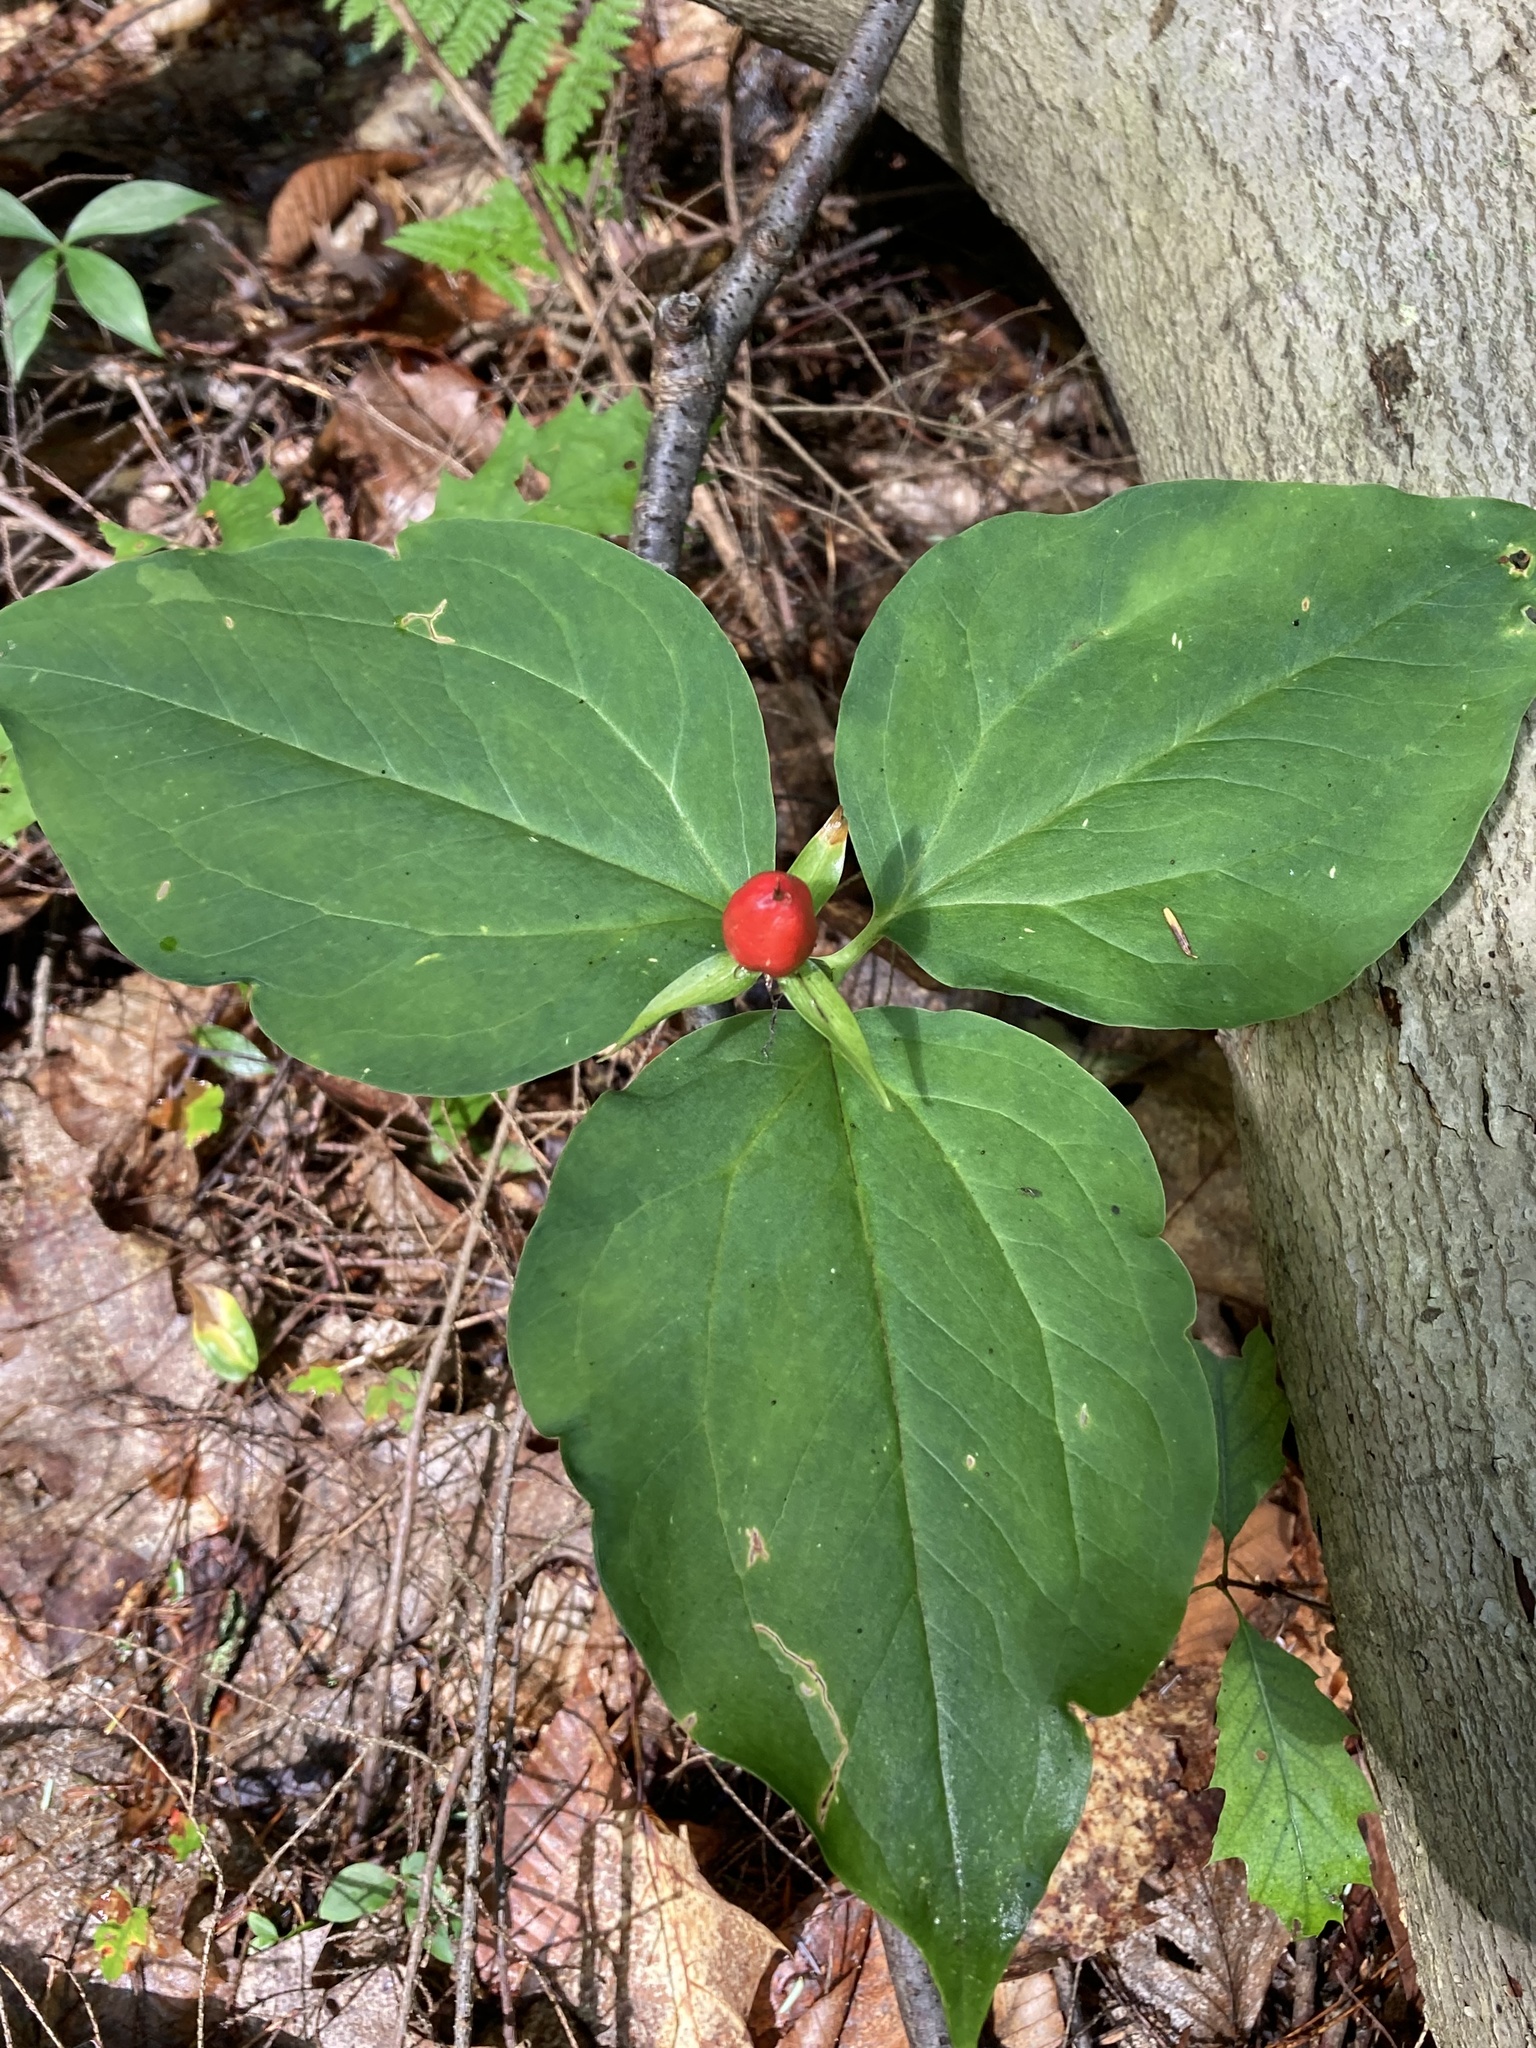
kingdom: Plantae
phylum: Tracheophyta
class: Liliopsida
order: Liliales
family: Melanthiaceae
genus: Trillium
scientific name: Trillium undulatum
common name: Paint trillium
